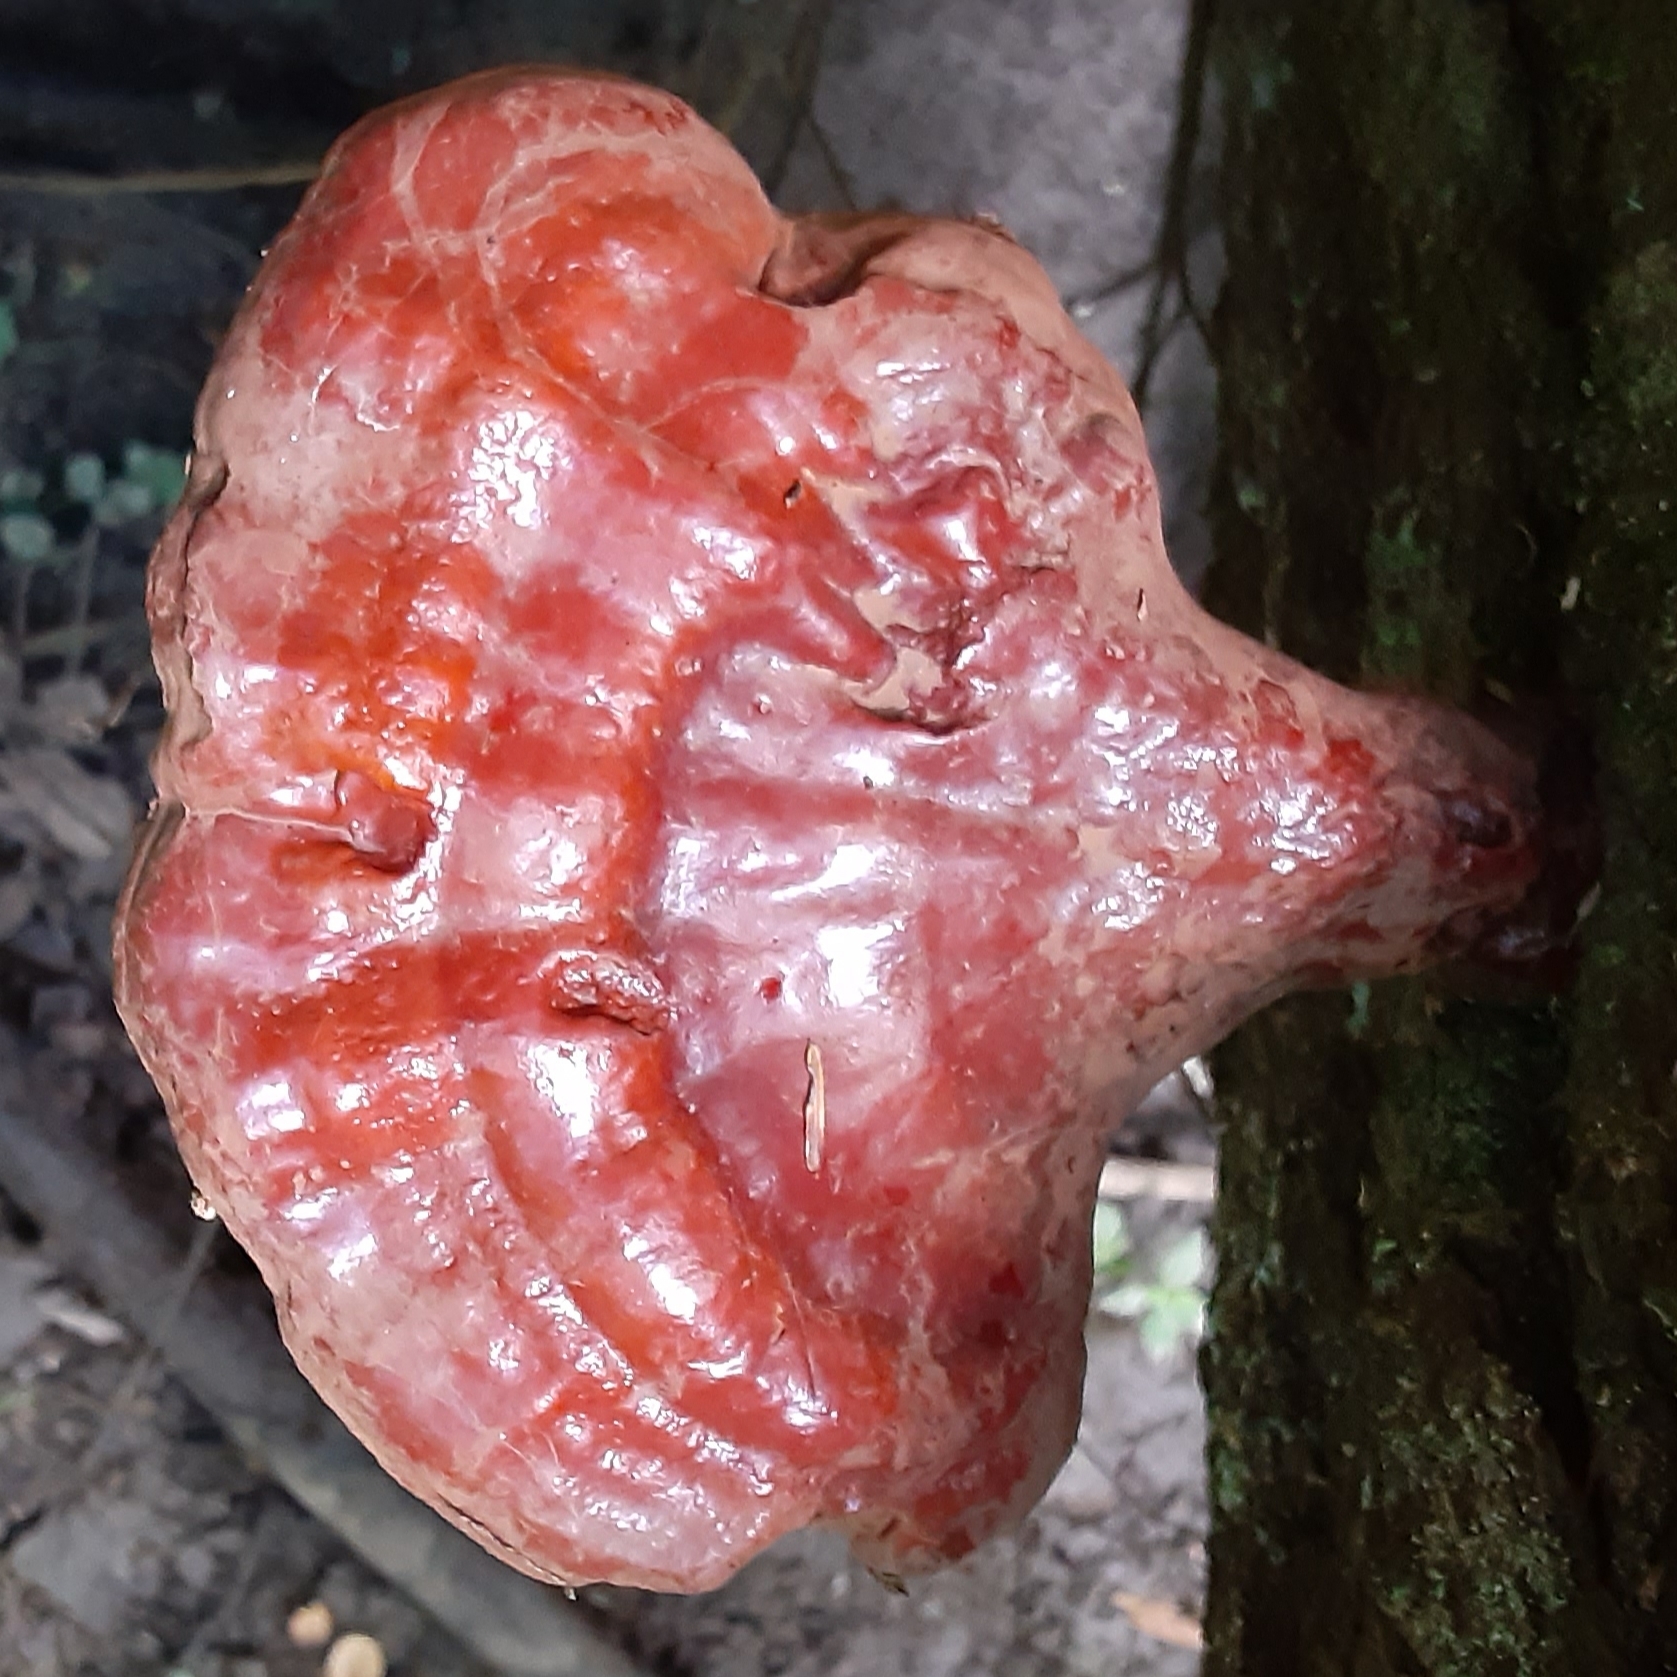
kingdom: Fungi
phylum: Basidiomycota
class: Agaricomycetes
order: Polyporales
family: Polyporaceae
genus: Ganoderma
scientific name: Ganoderma tsugae
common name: Hemlock varnish shelf
